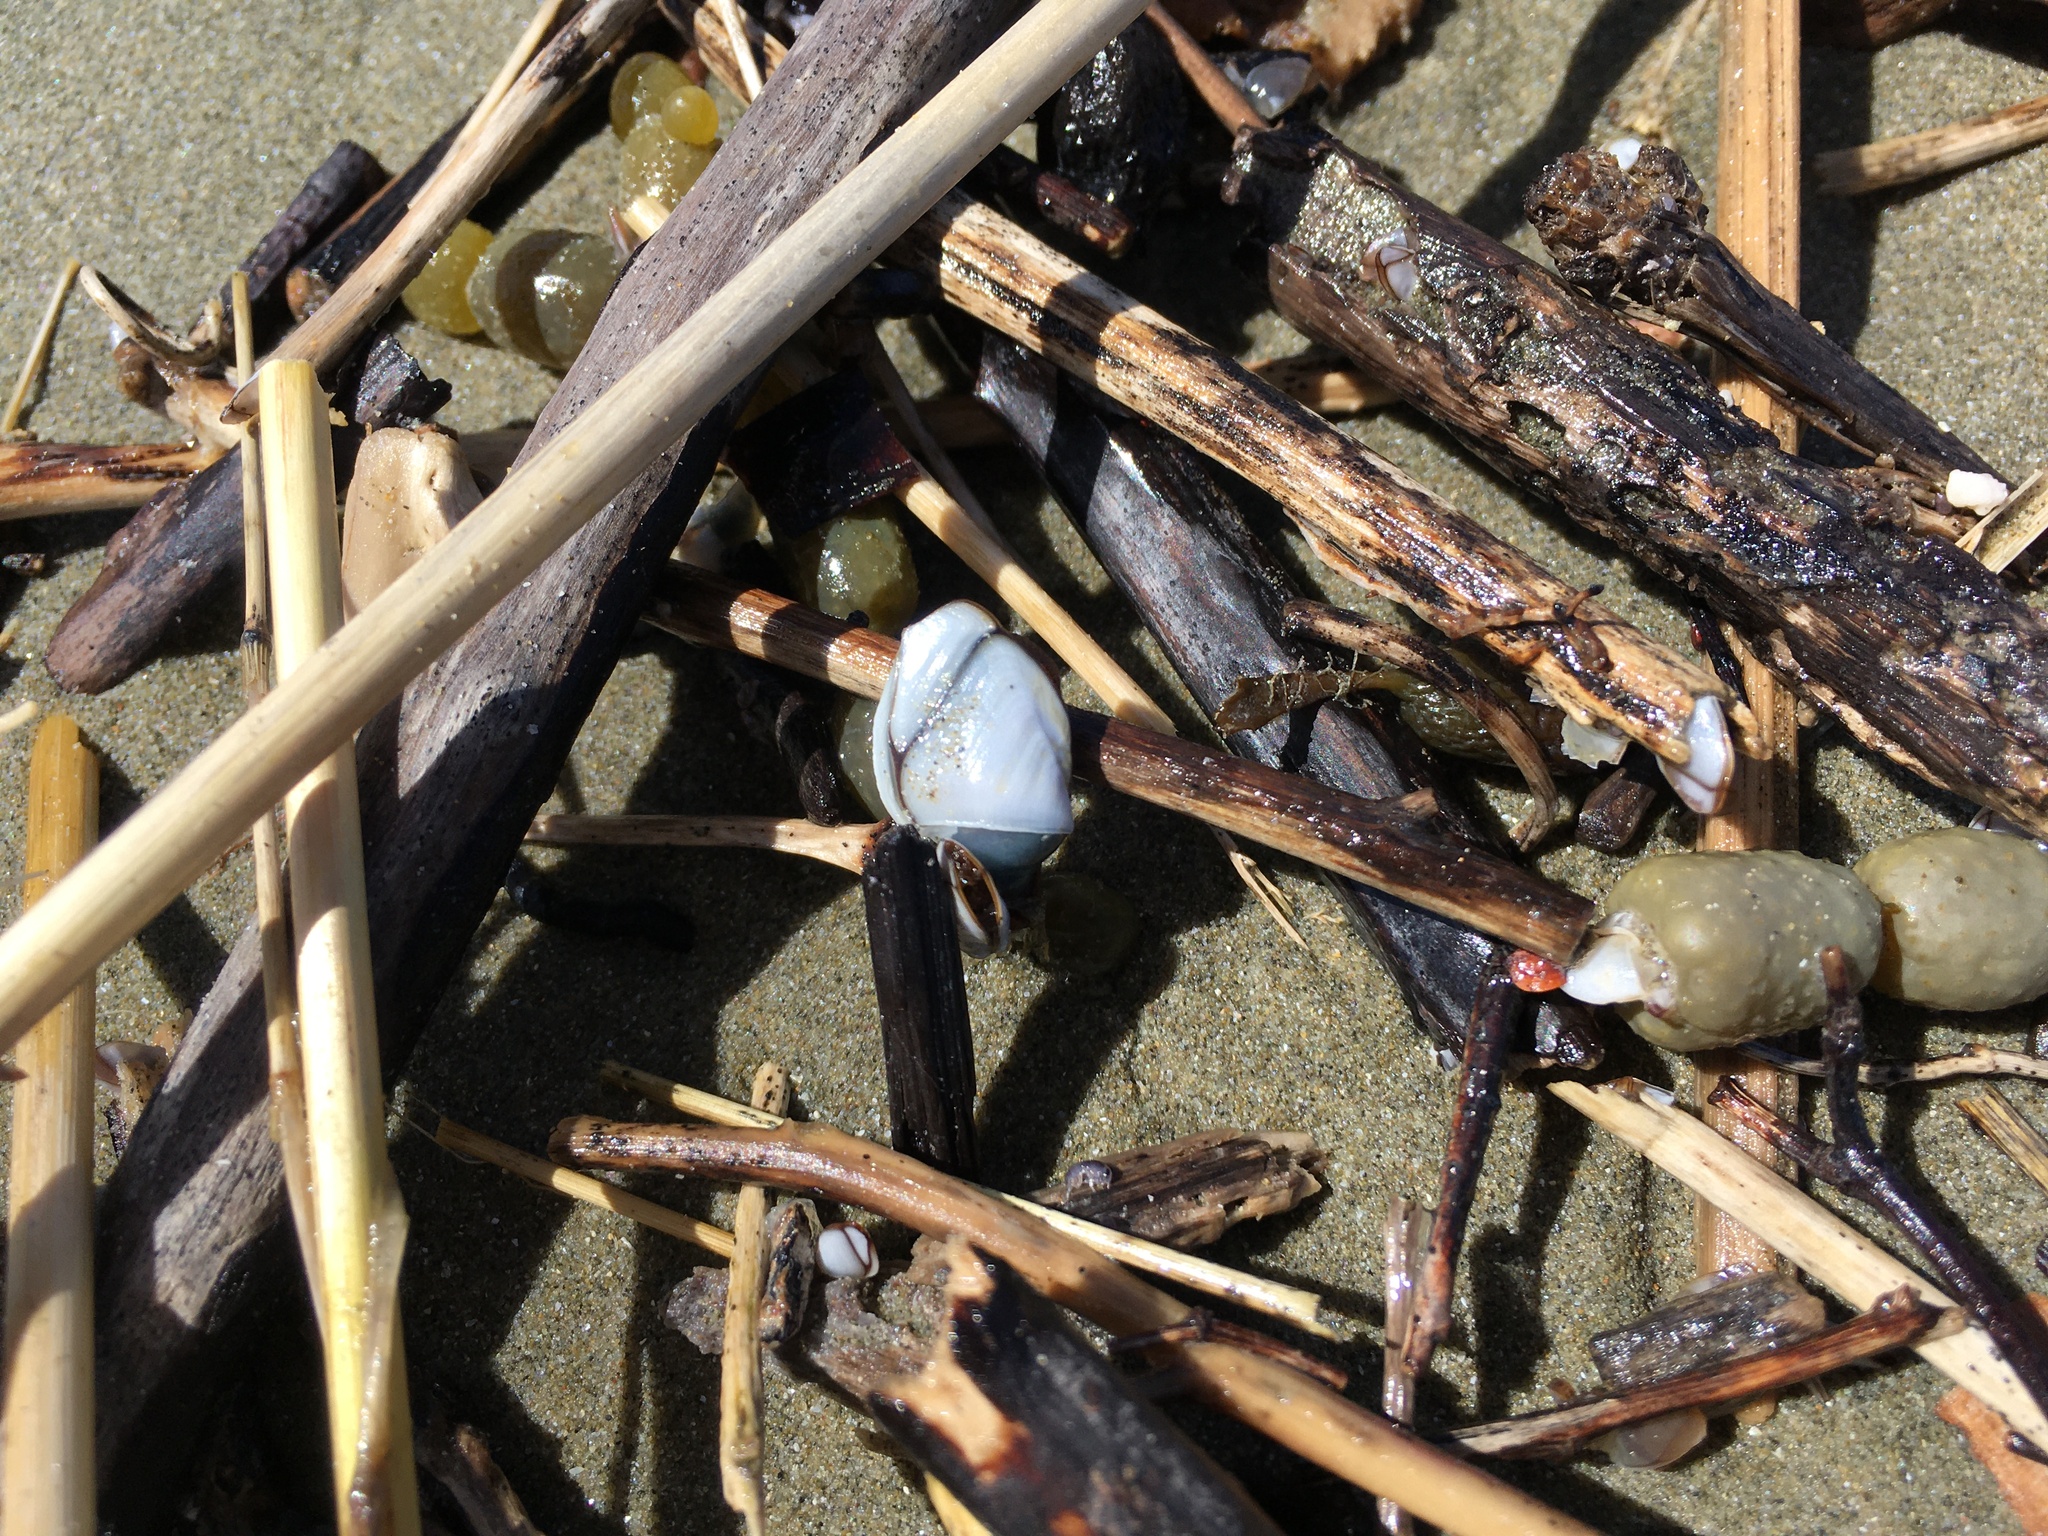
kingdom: Animalia
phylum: Arthropoda
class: Maxillopoda
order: Pedunculata
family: Lepadidae
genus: Lepas
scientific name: Lepas australis
